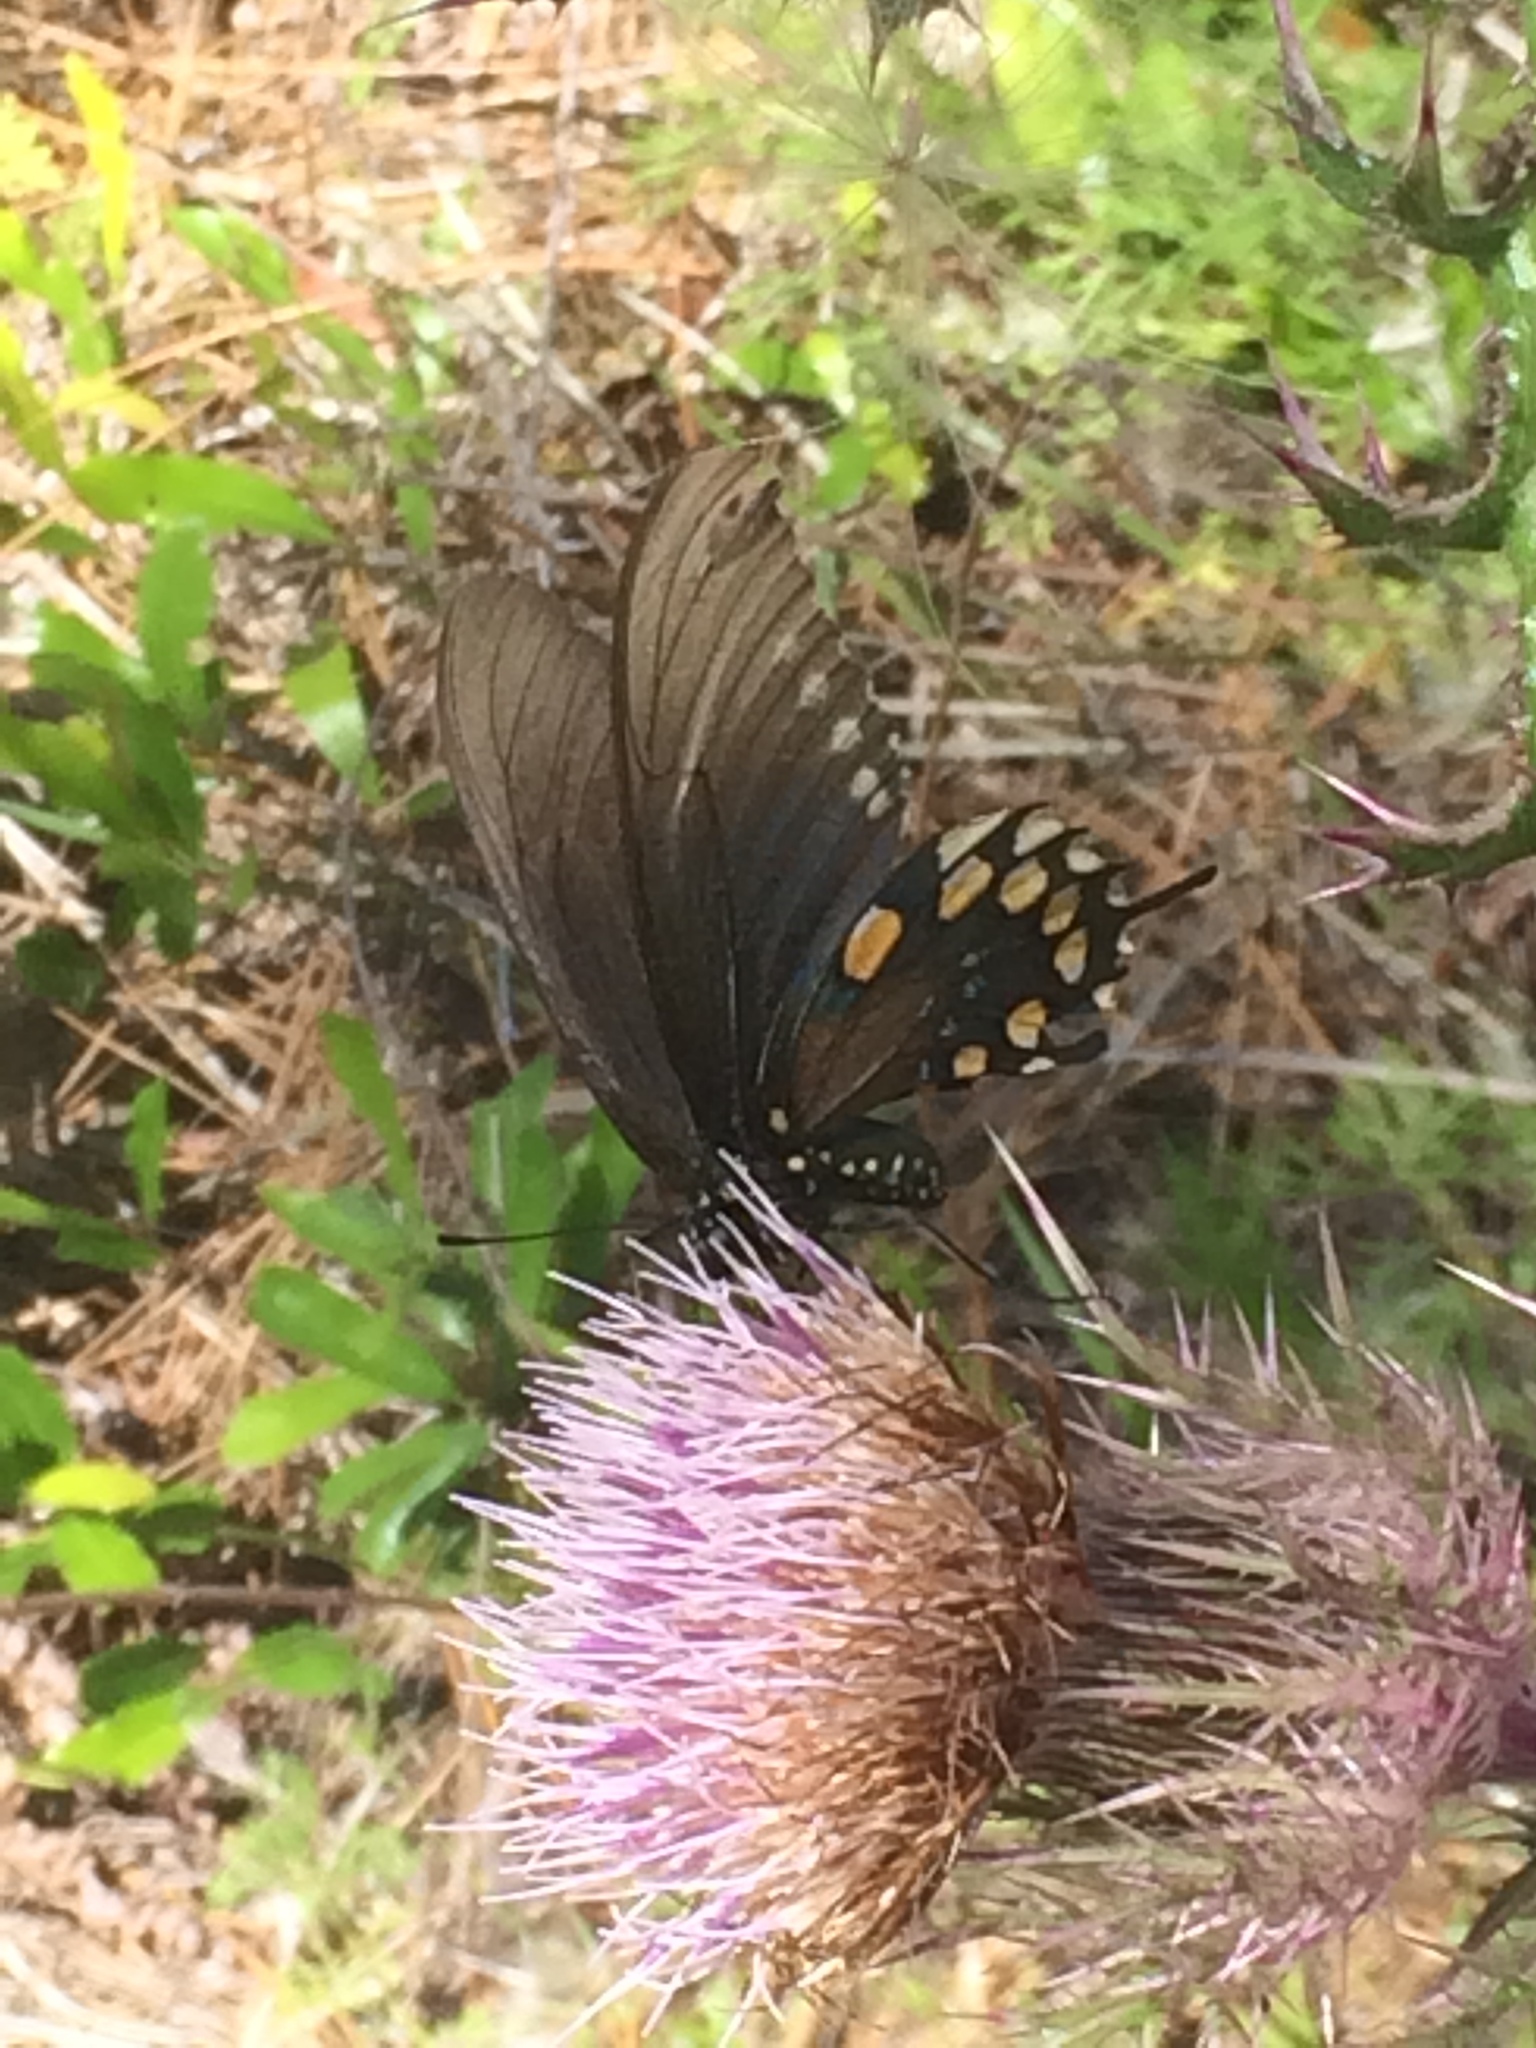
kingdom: Animalia
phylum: Arthropoda
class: Insecta
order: Lepidoptera
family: Papilionidae
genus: Battus
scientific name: Battus philenor
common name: Pipevine swallowtail
